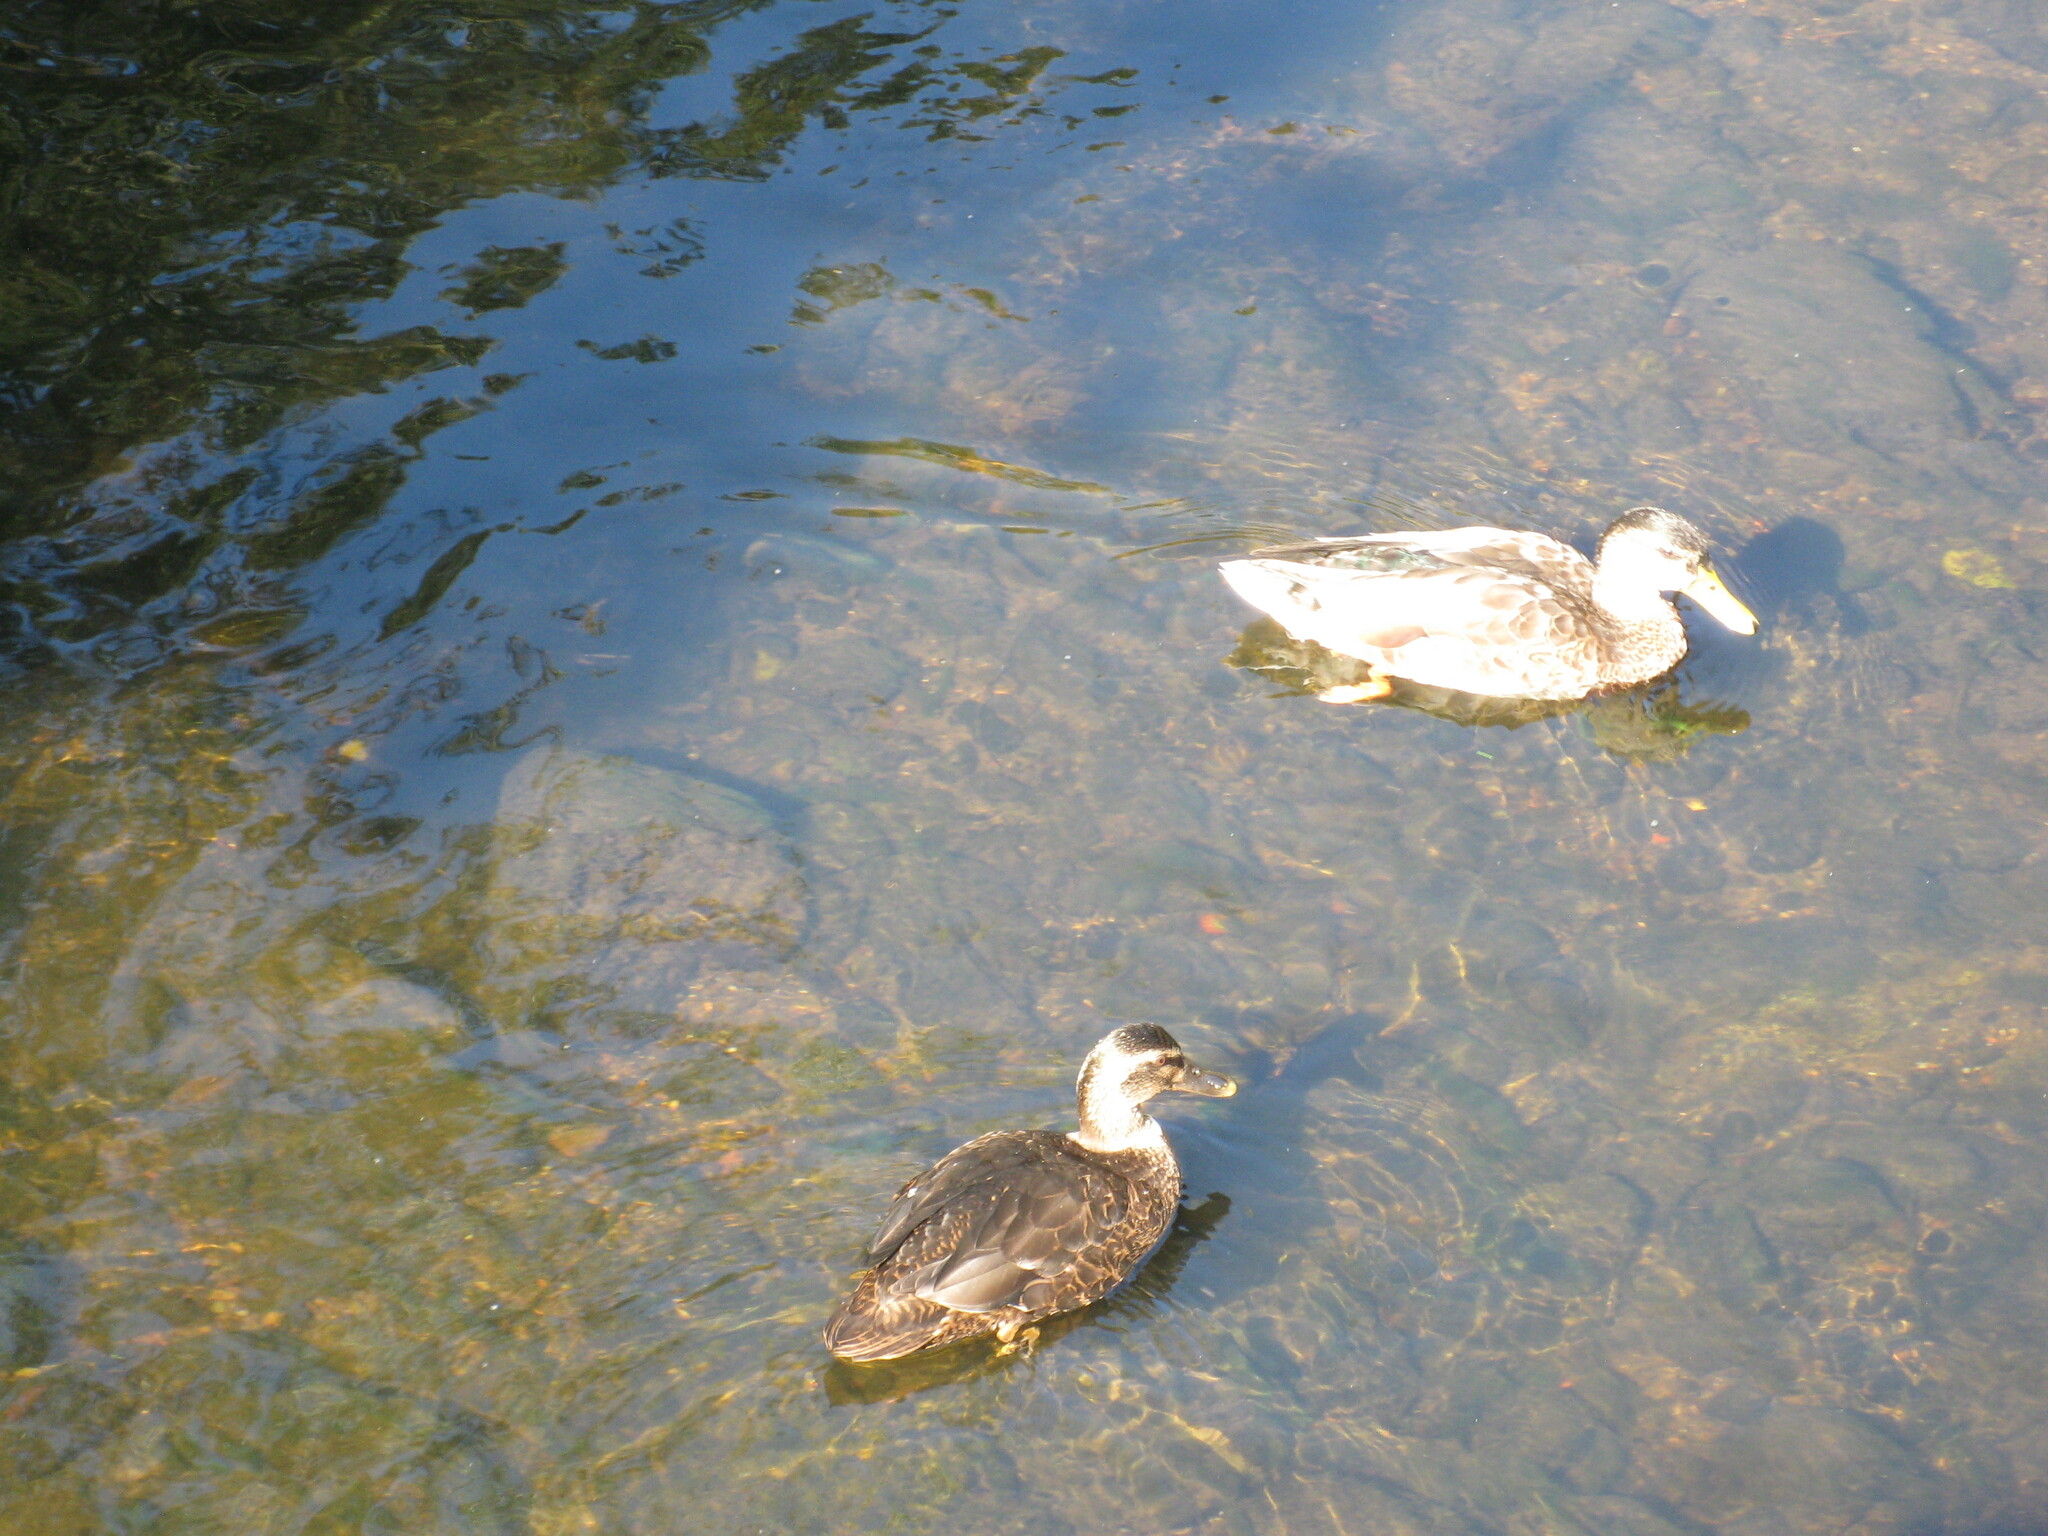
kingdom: Animalia
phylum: Chordata
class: Aves
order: Anseriformes
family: Anatidae
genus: Anas
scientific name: Anas platyrhynchos
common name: Mallard
